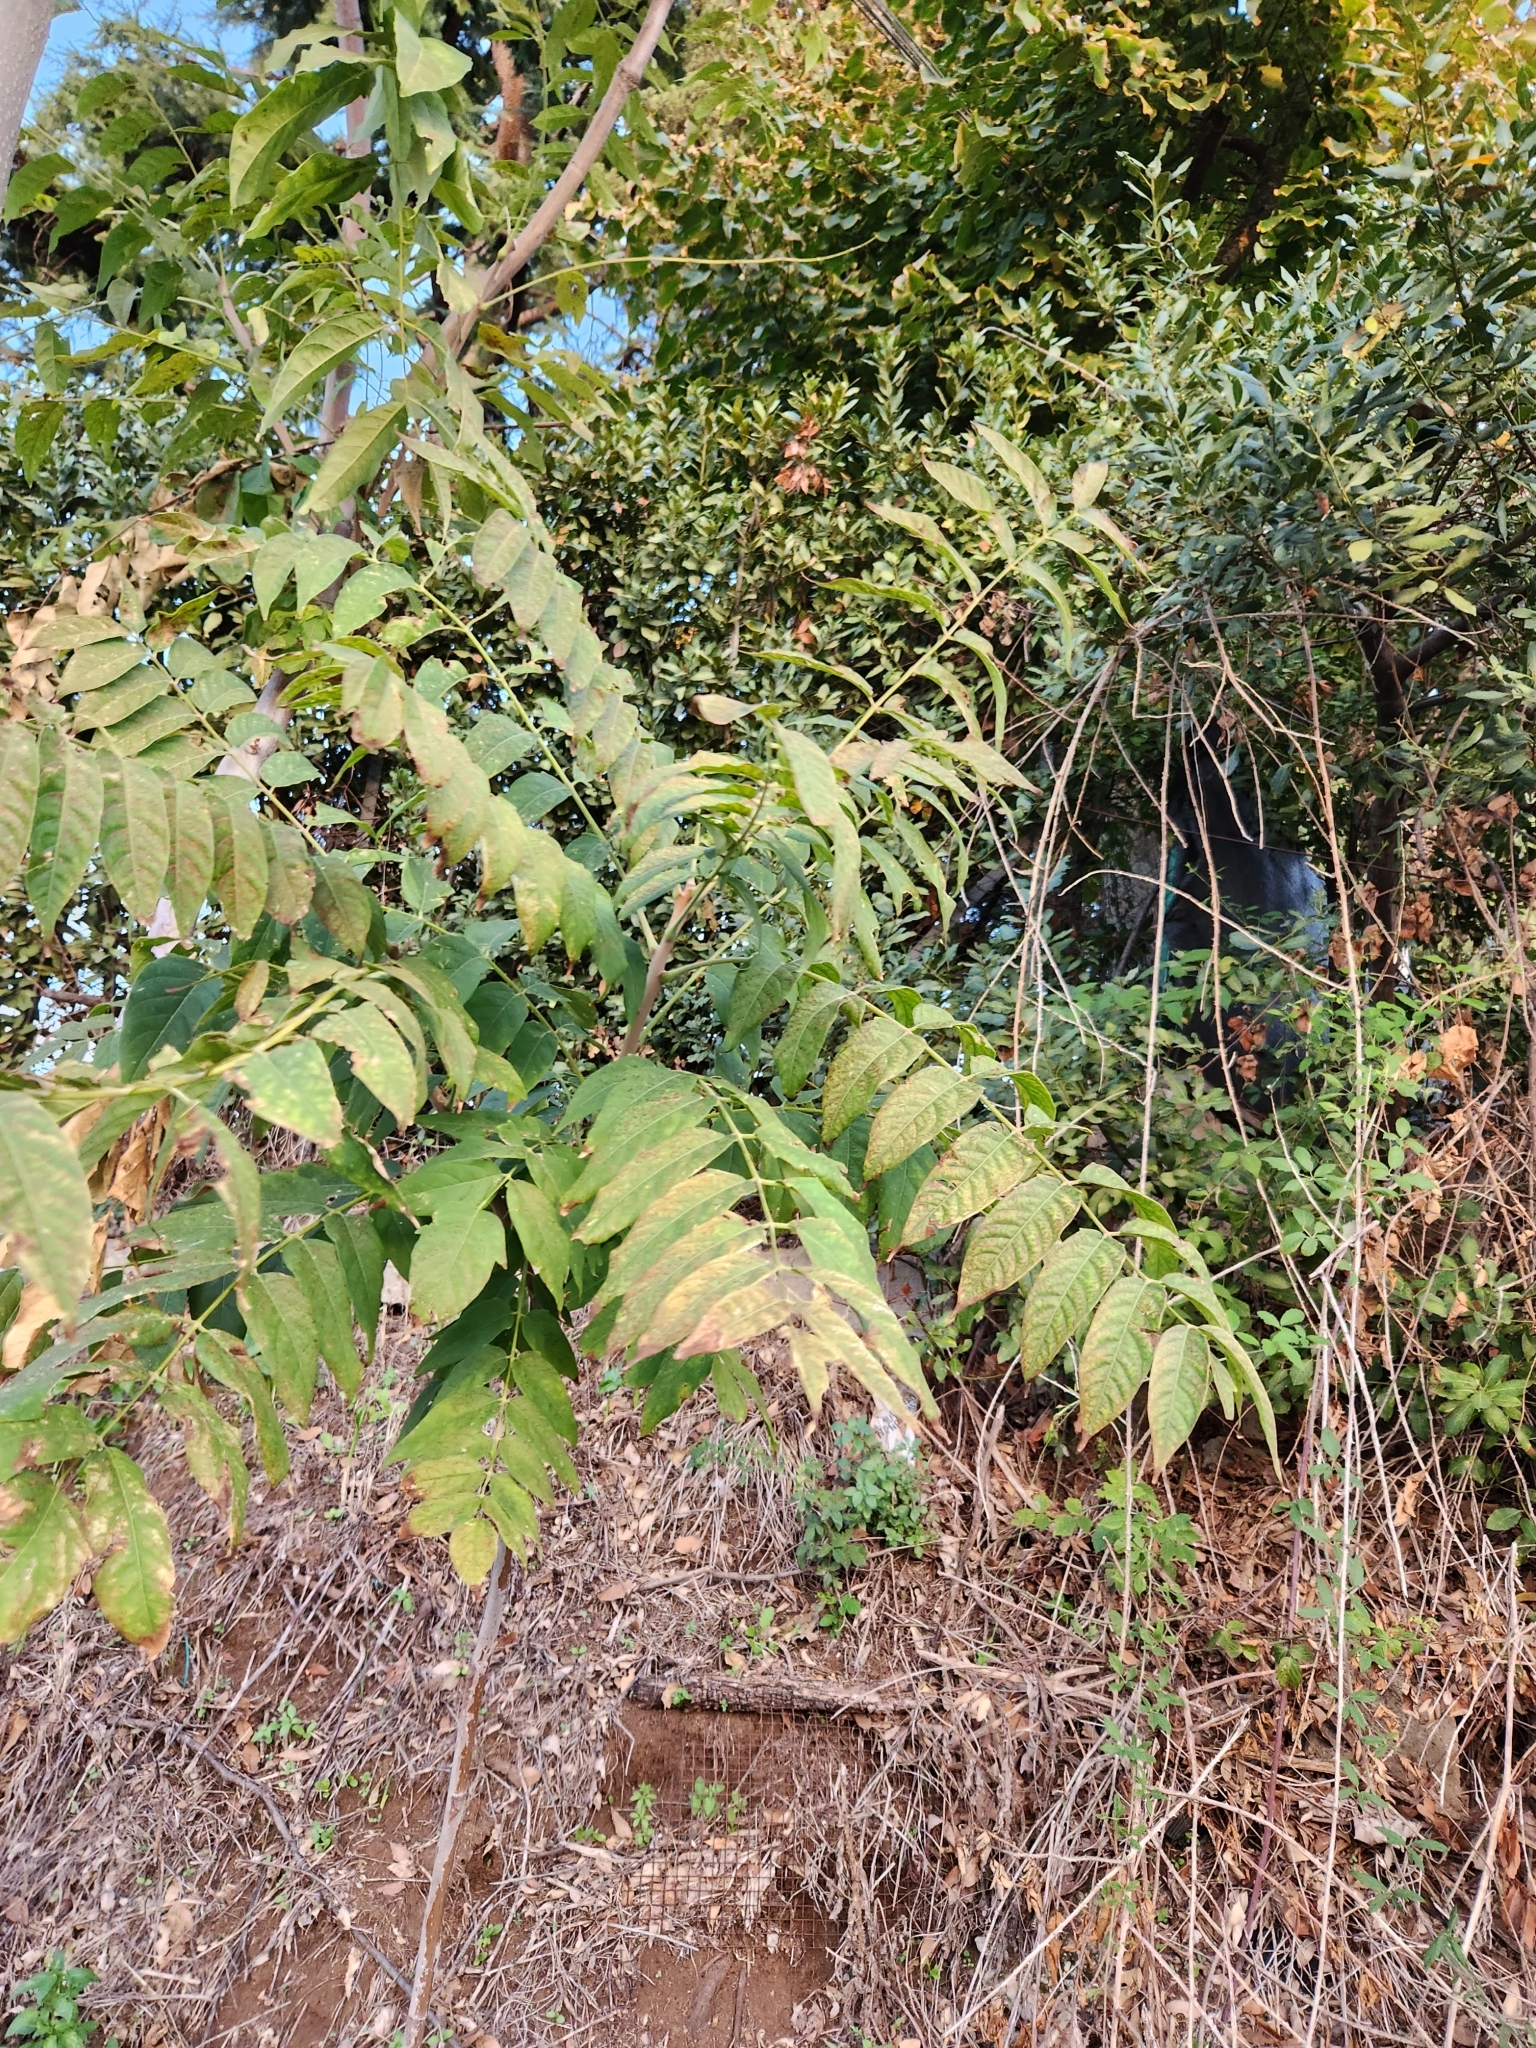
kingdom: Plantae
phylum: Tracheophyta
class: Magnoliopsida
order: Sapindales
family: Simaroubaceae
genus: Ailanthus
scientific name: Ailanthus altissima
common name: Tree-of-heaven
